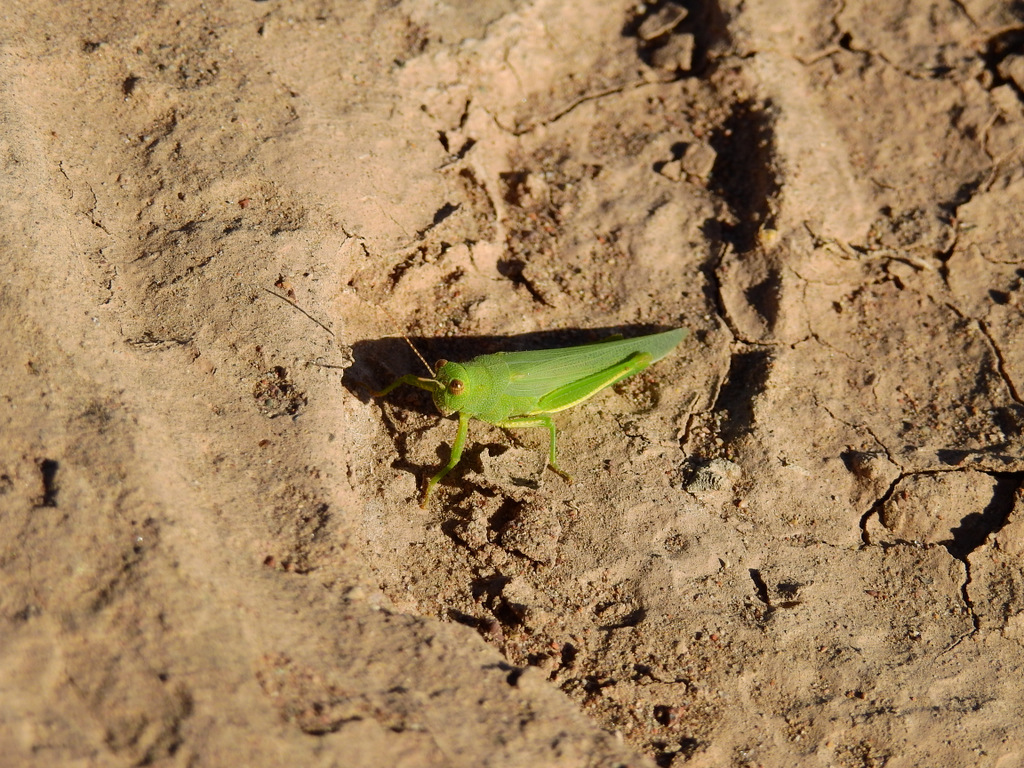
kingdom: Animalia
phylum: Arthropoda
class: Insecta
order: Orthoptera
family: Ommexechidae
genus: Clarazella
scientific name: Clarazella patagona
